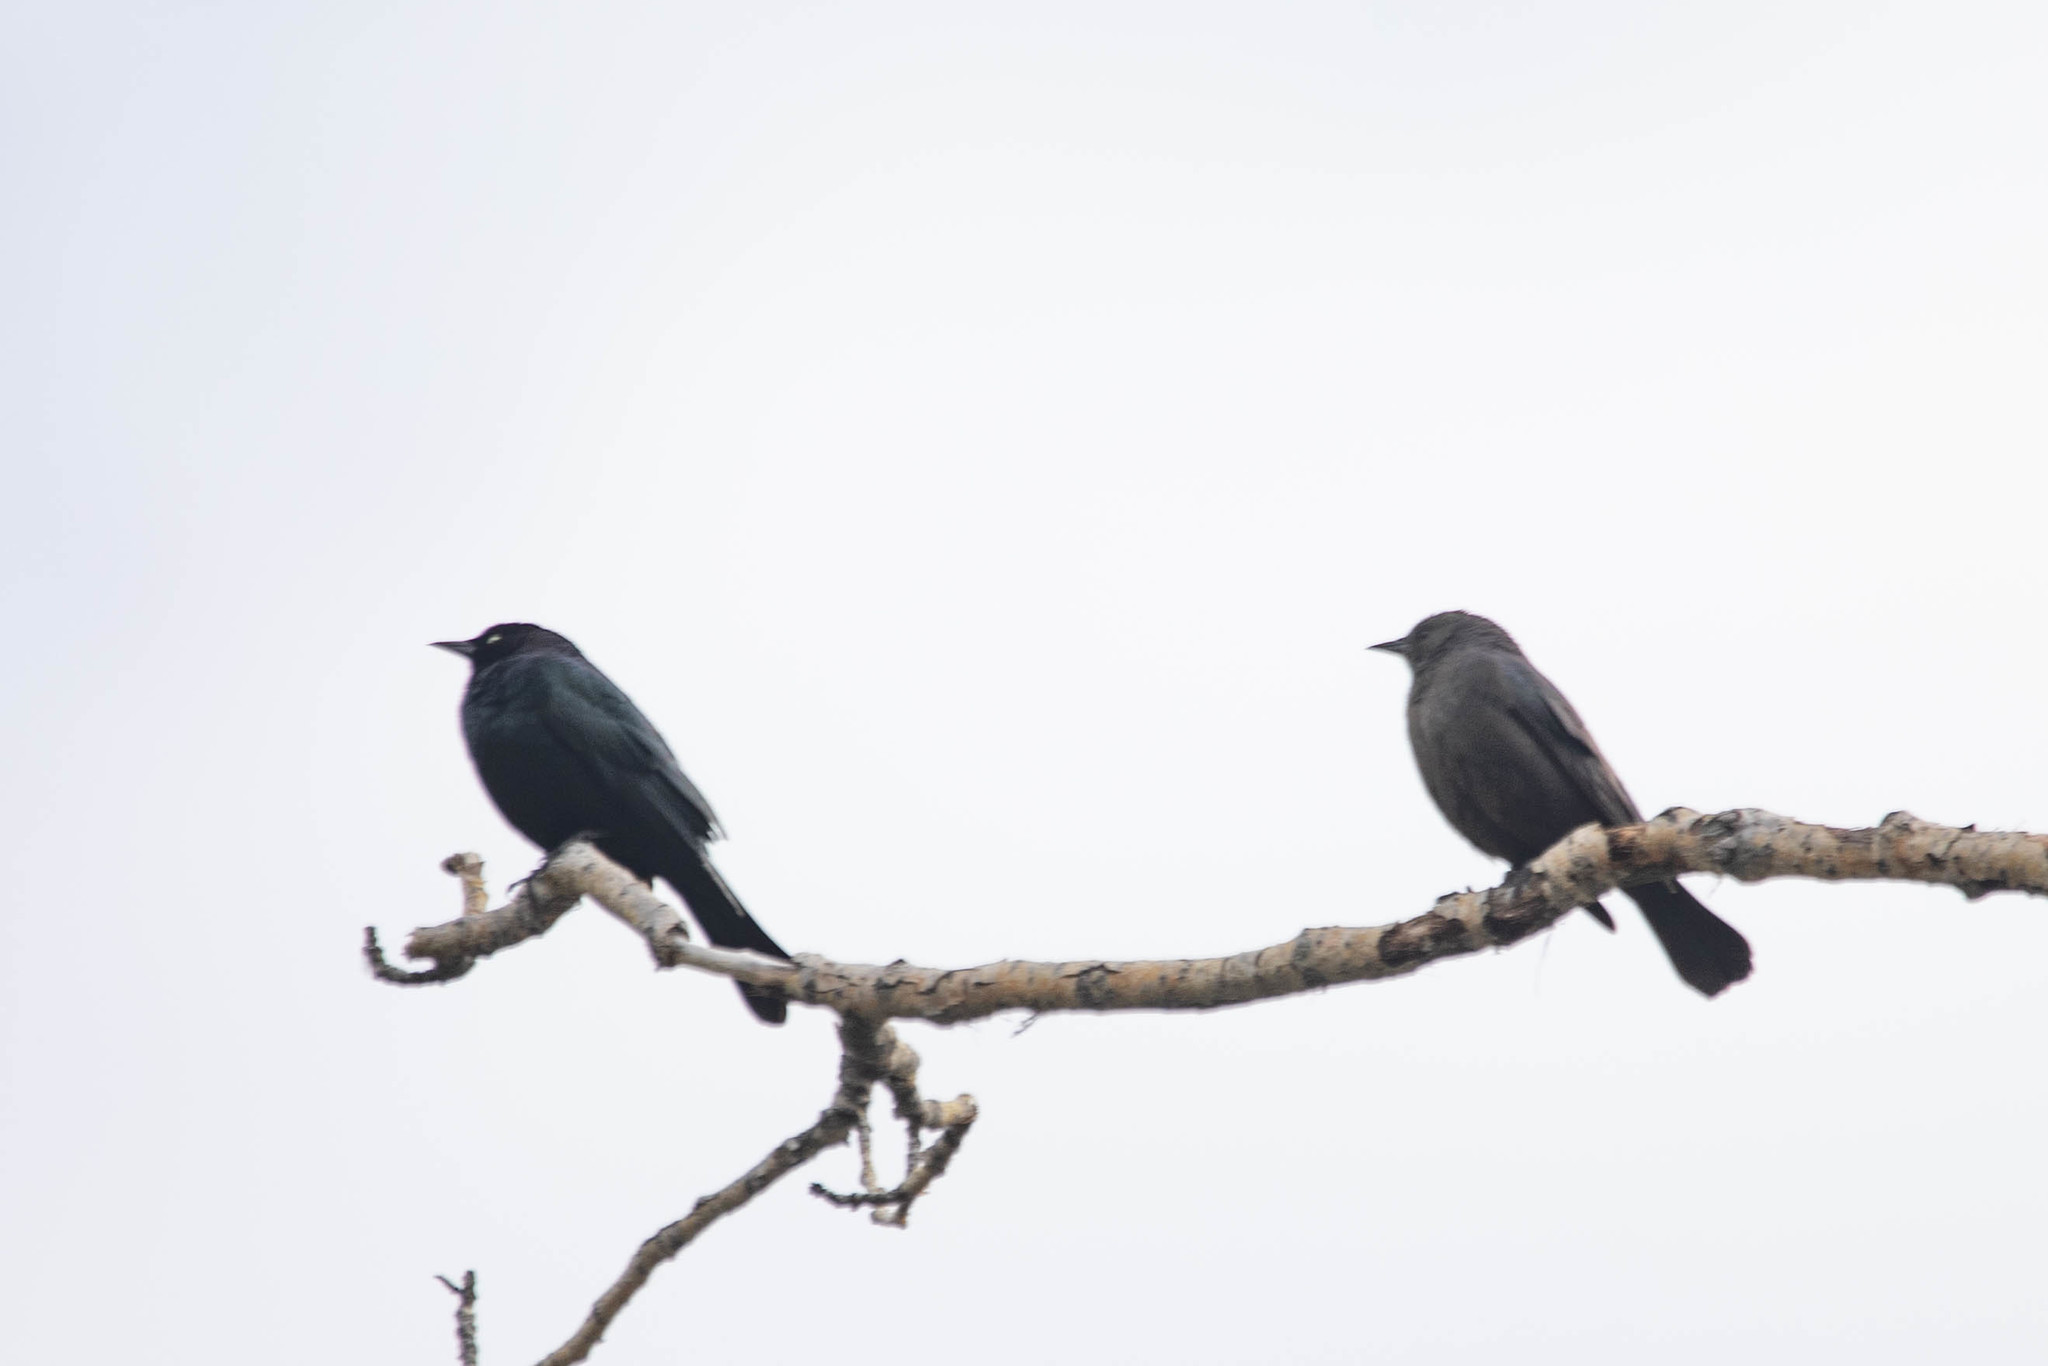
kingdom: Animalia
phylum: Chordata
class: Aves
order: Passeriformes
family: Icteridae
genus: Euphagus
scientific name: Euphagus cyanocephalus
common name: Brewer's blackbird
